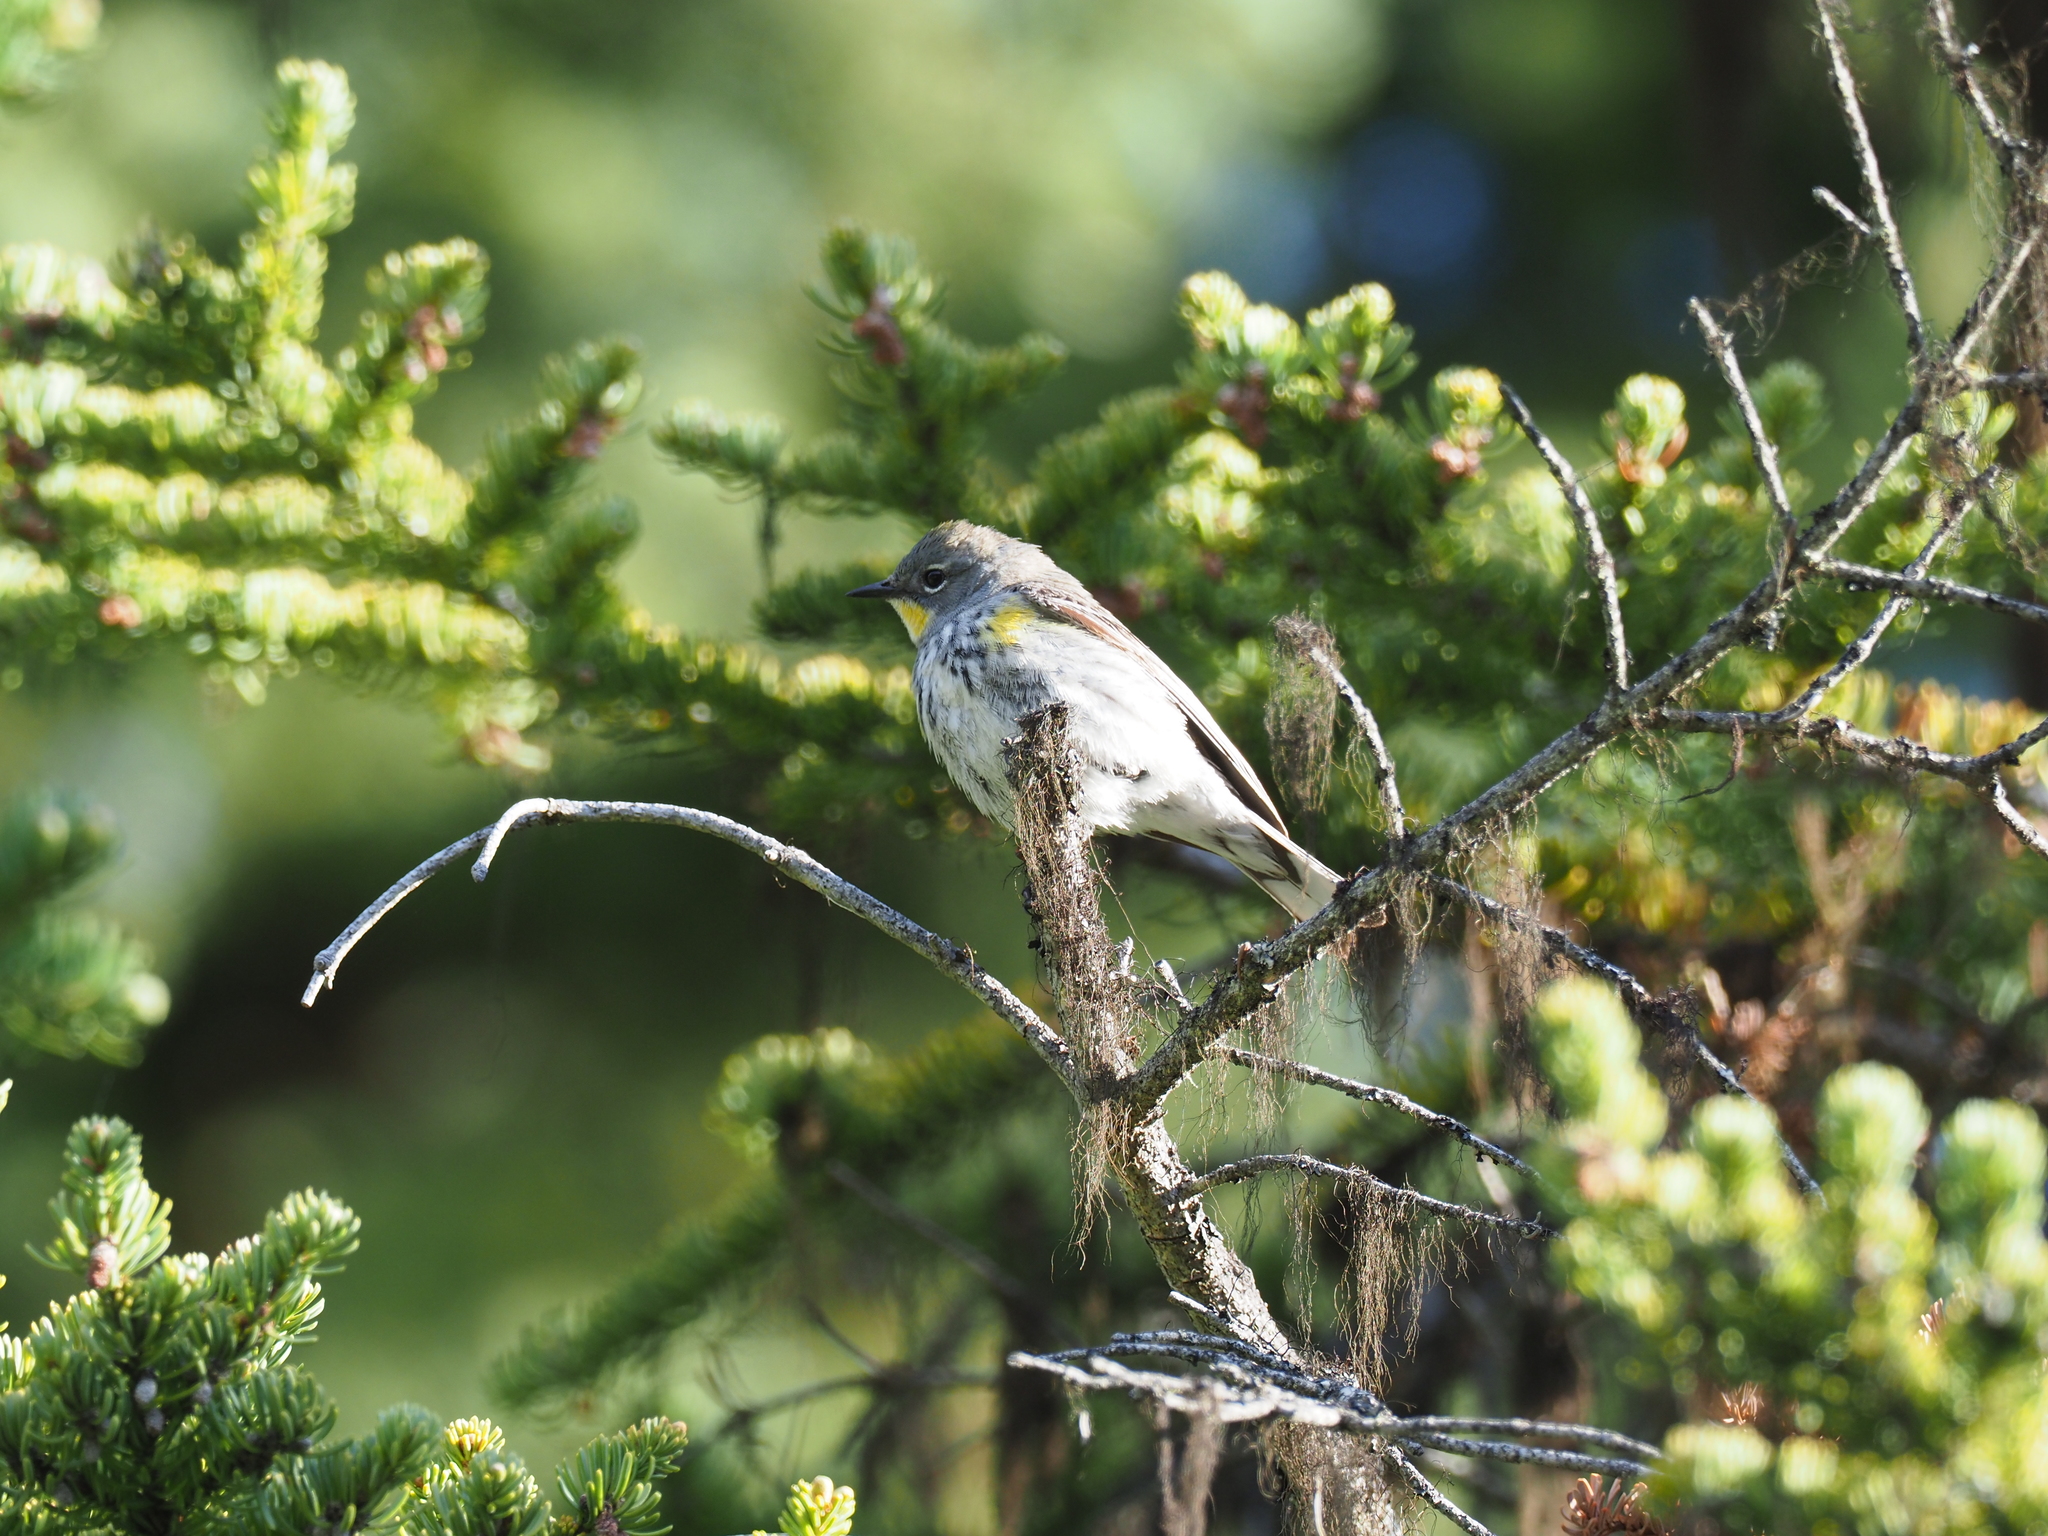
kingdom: Animalia
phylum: Chordata
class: Aves
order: Passeriformes
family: Parulidae
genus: Setophaga
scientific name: Setophaga auduboni
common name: Audubon's warbler
